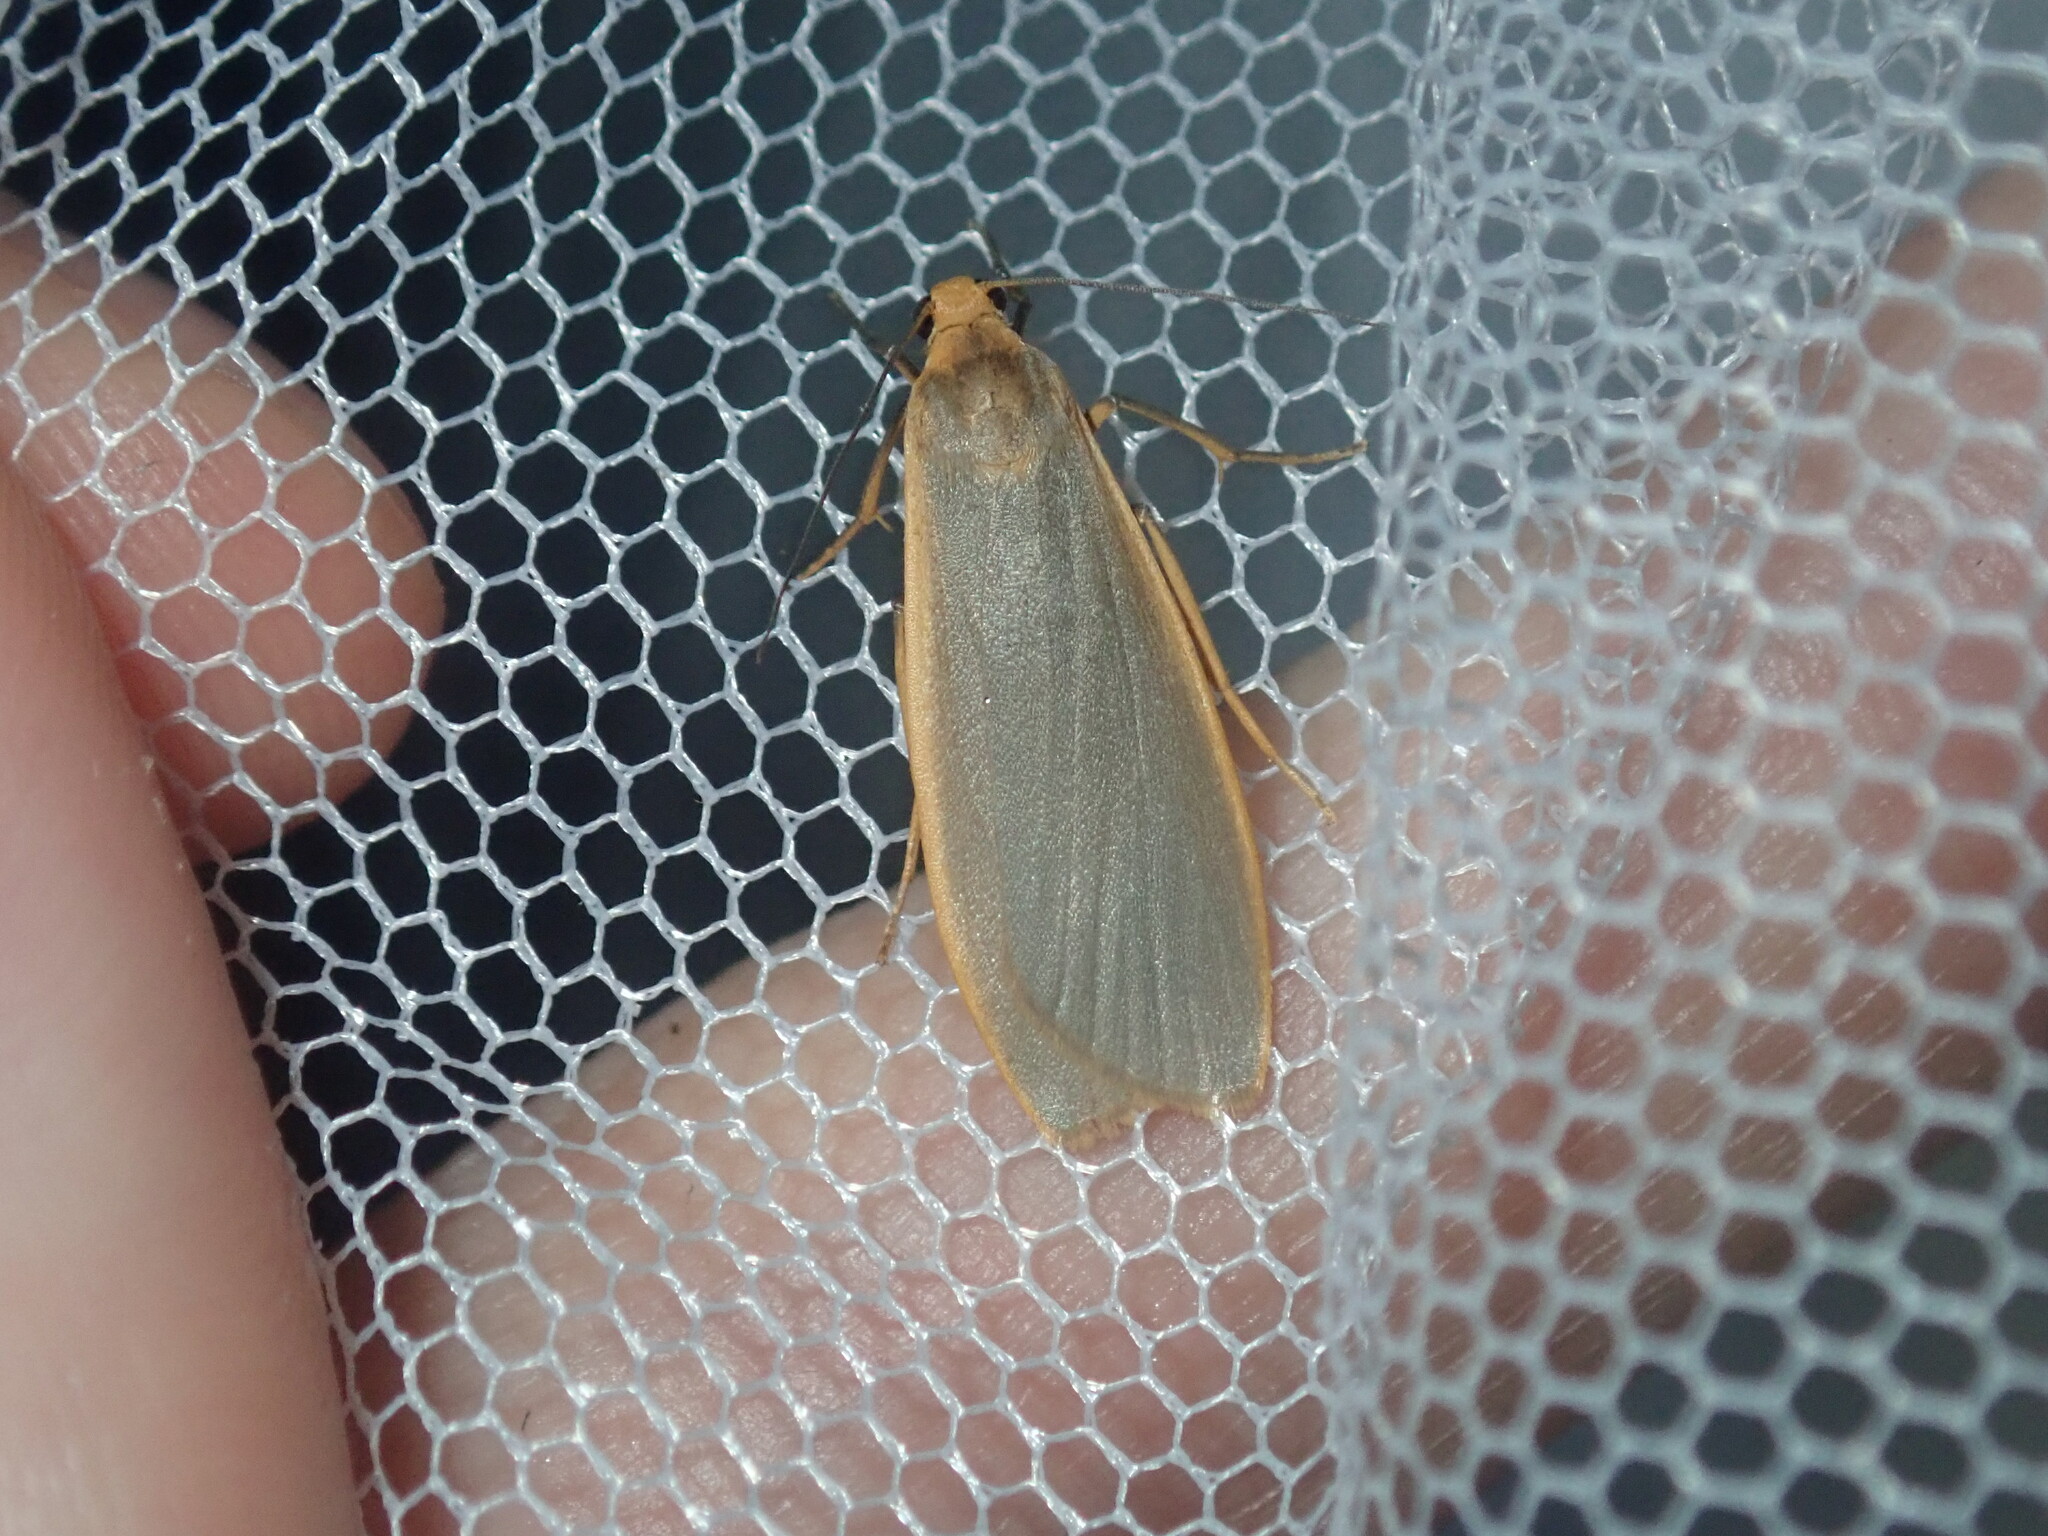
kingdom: Animalia
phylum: Arthropoda
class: Insecta
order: Lepidoptera
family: Erebidae
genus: Eilema
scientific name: Eilema plana
